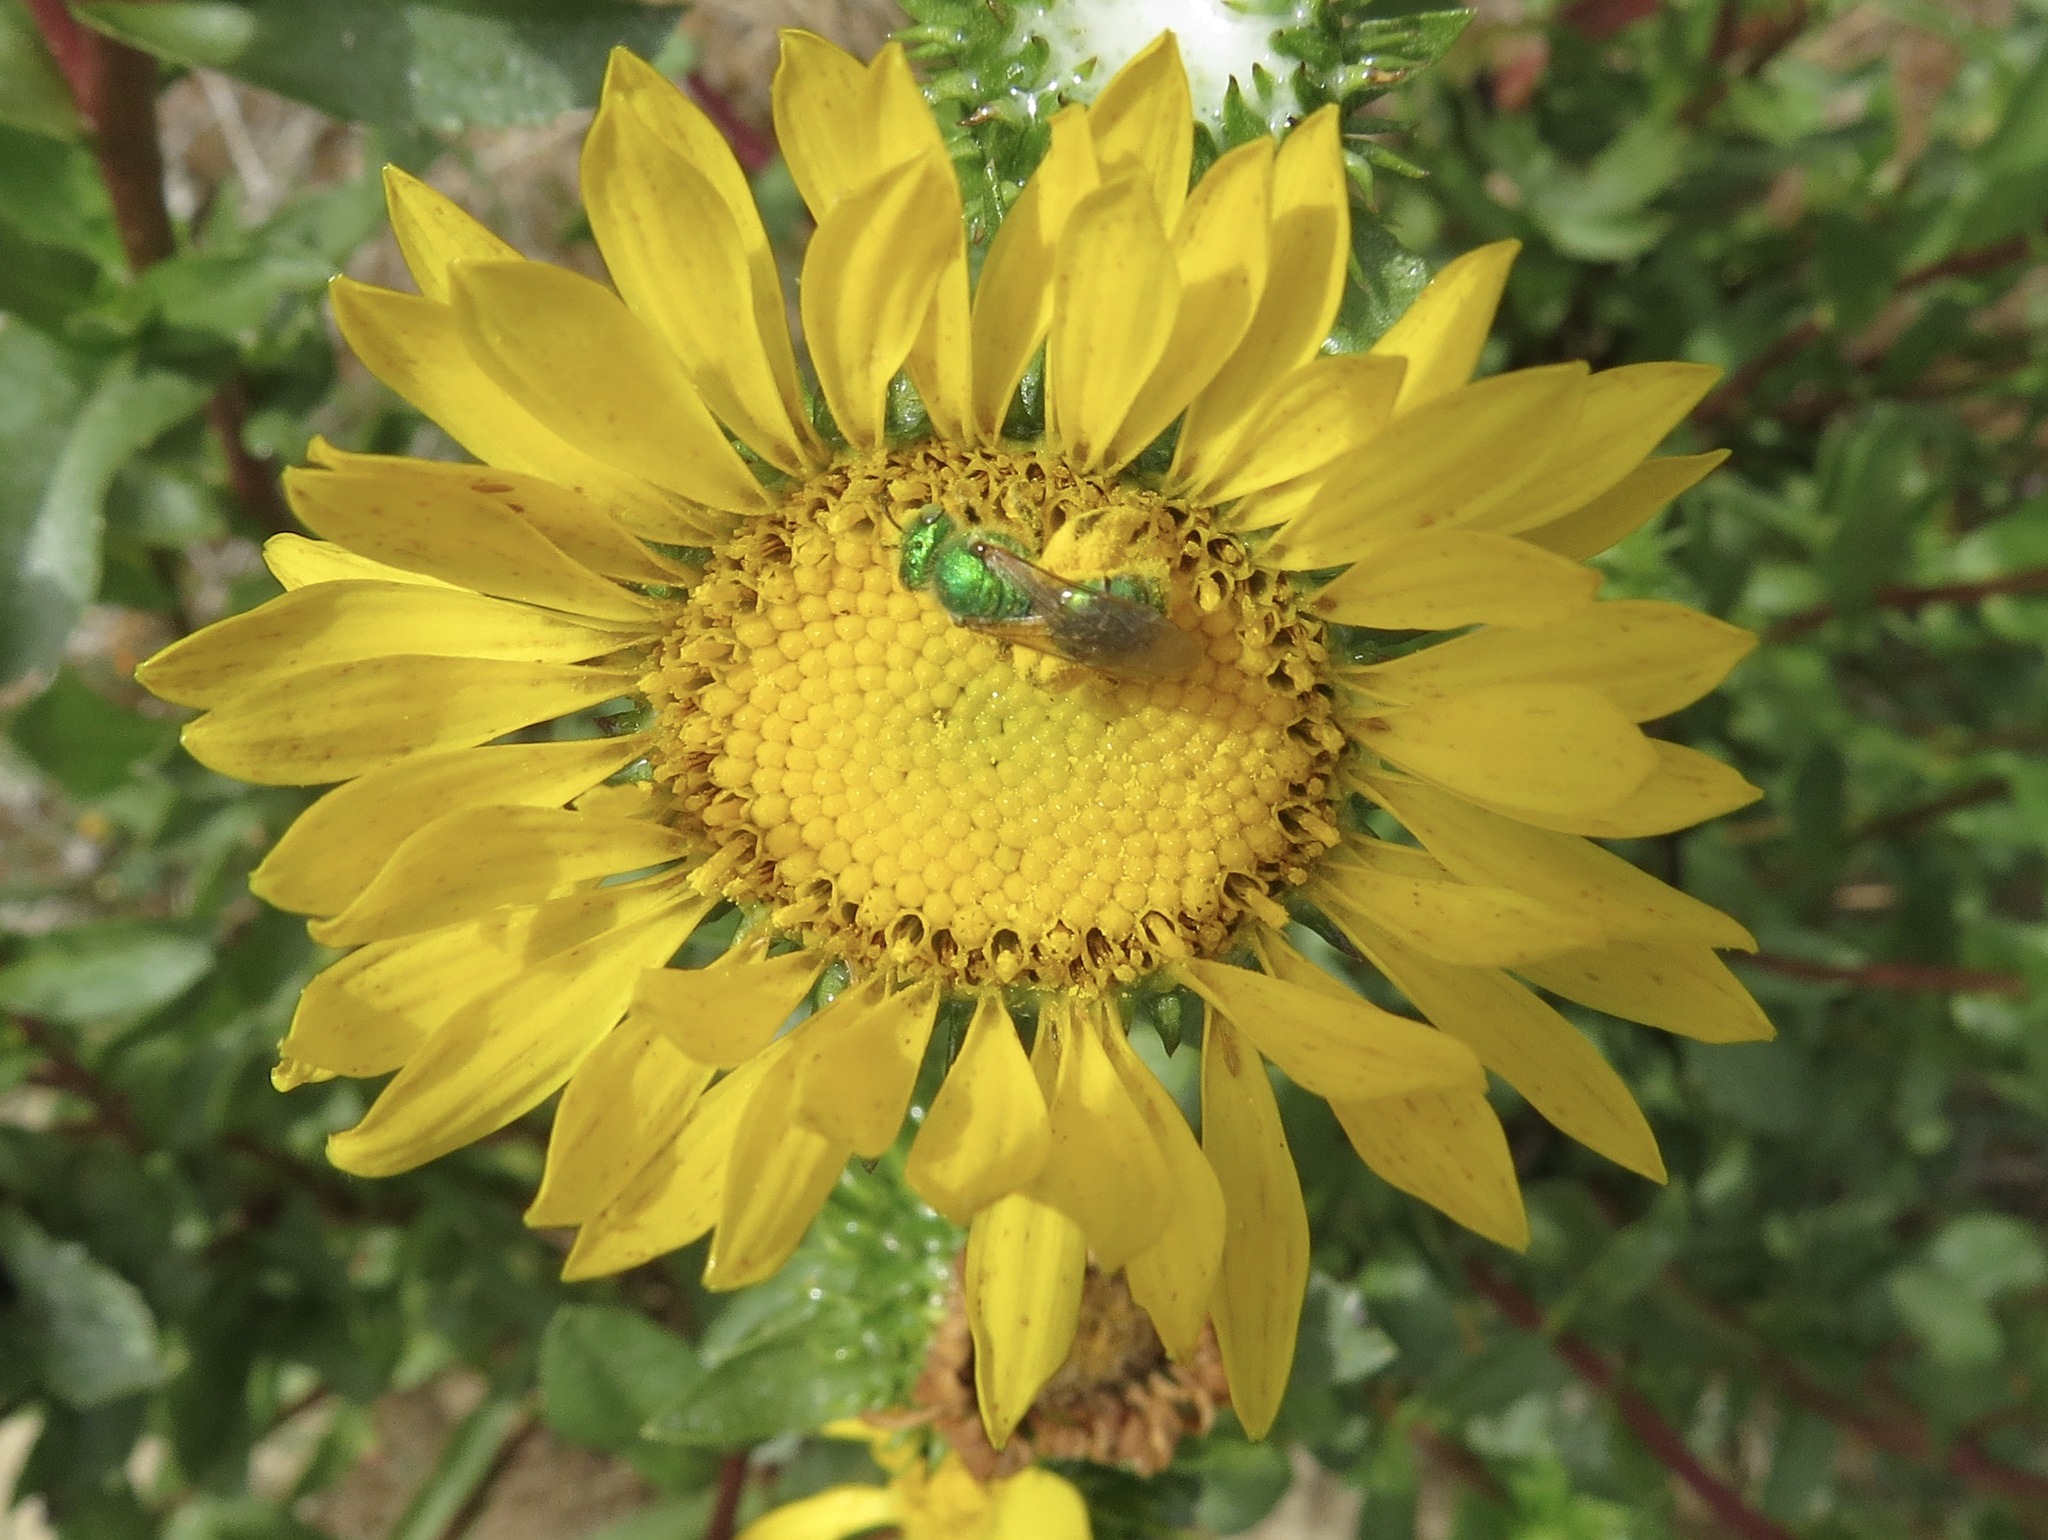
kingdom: Animalia
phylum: Arthropoda
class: Insecta
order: Hymenoptera
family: Halictidae
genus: Agapostemon
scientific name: Agapostemon texanus
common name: Texas striped sweat bee
